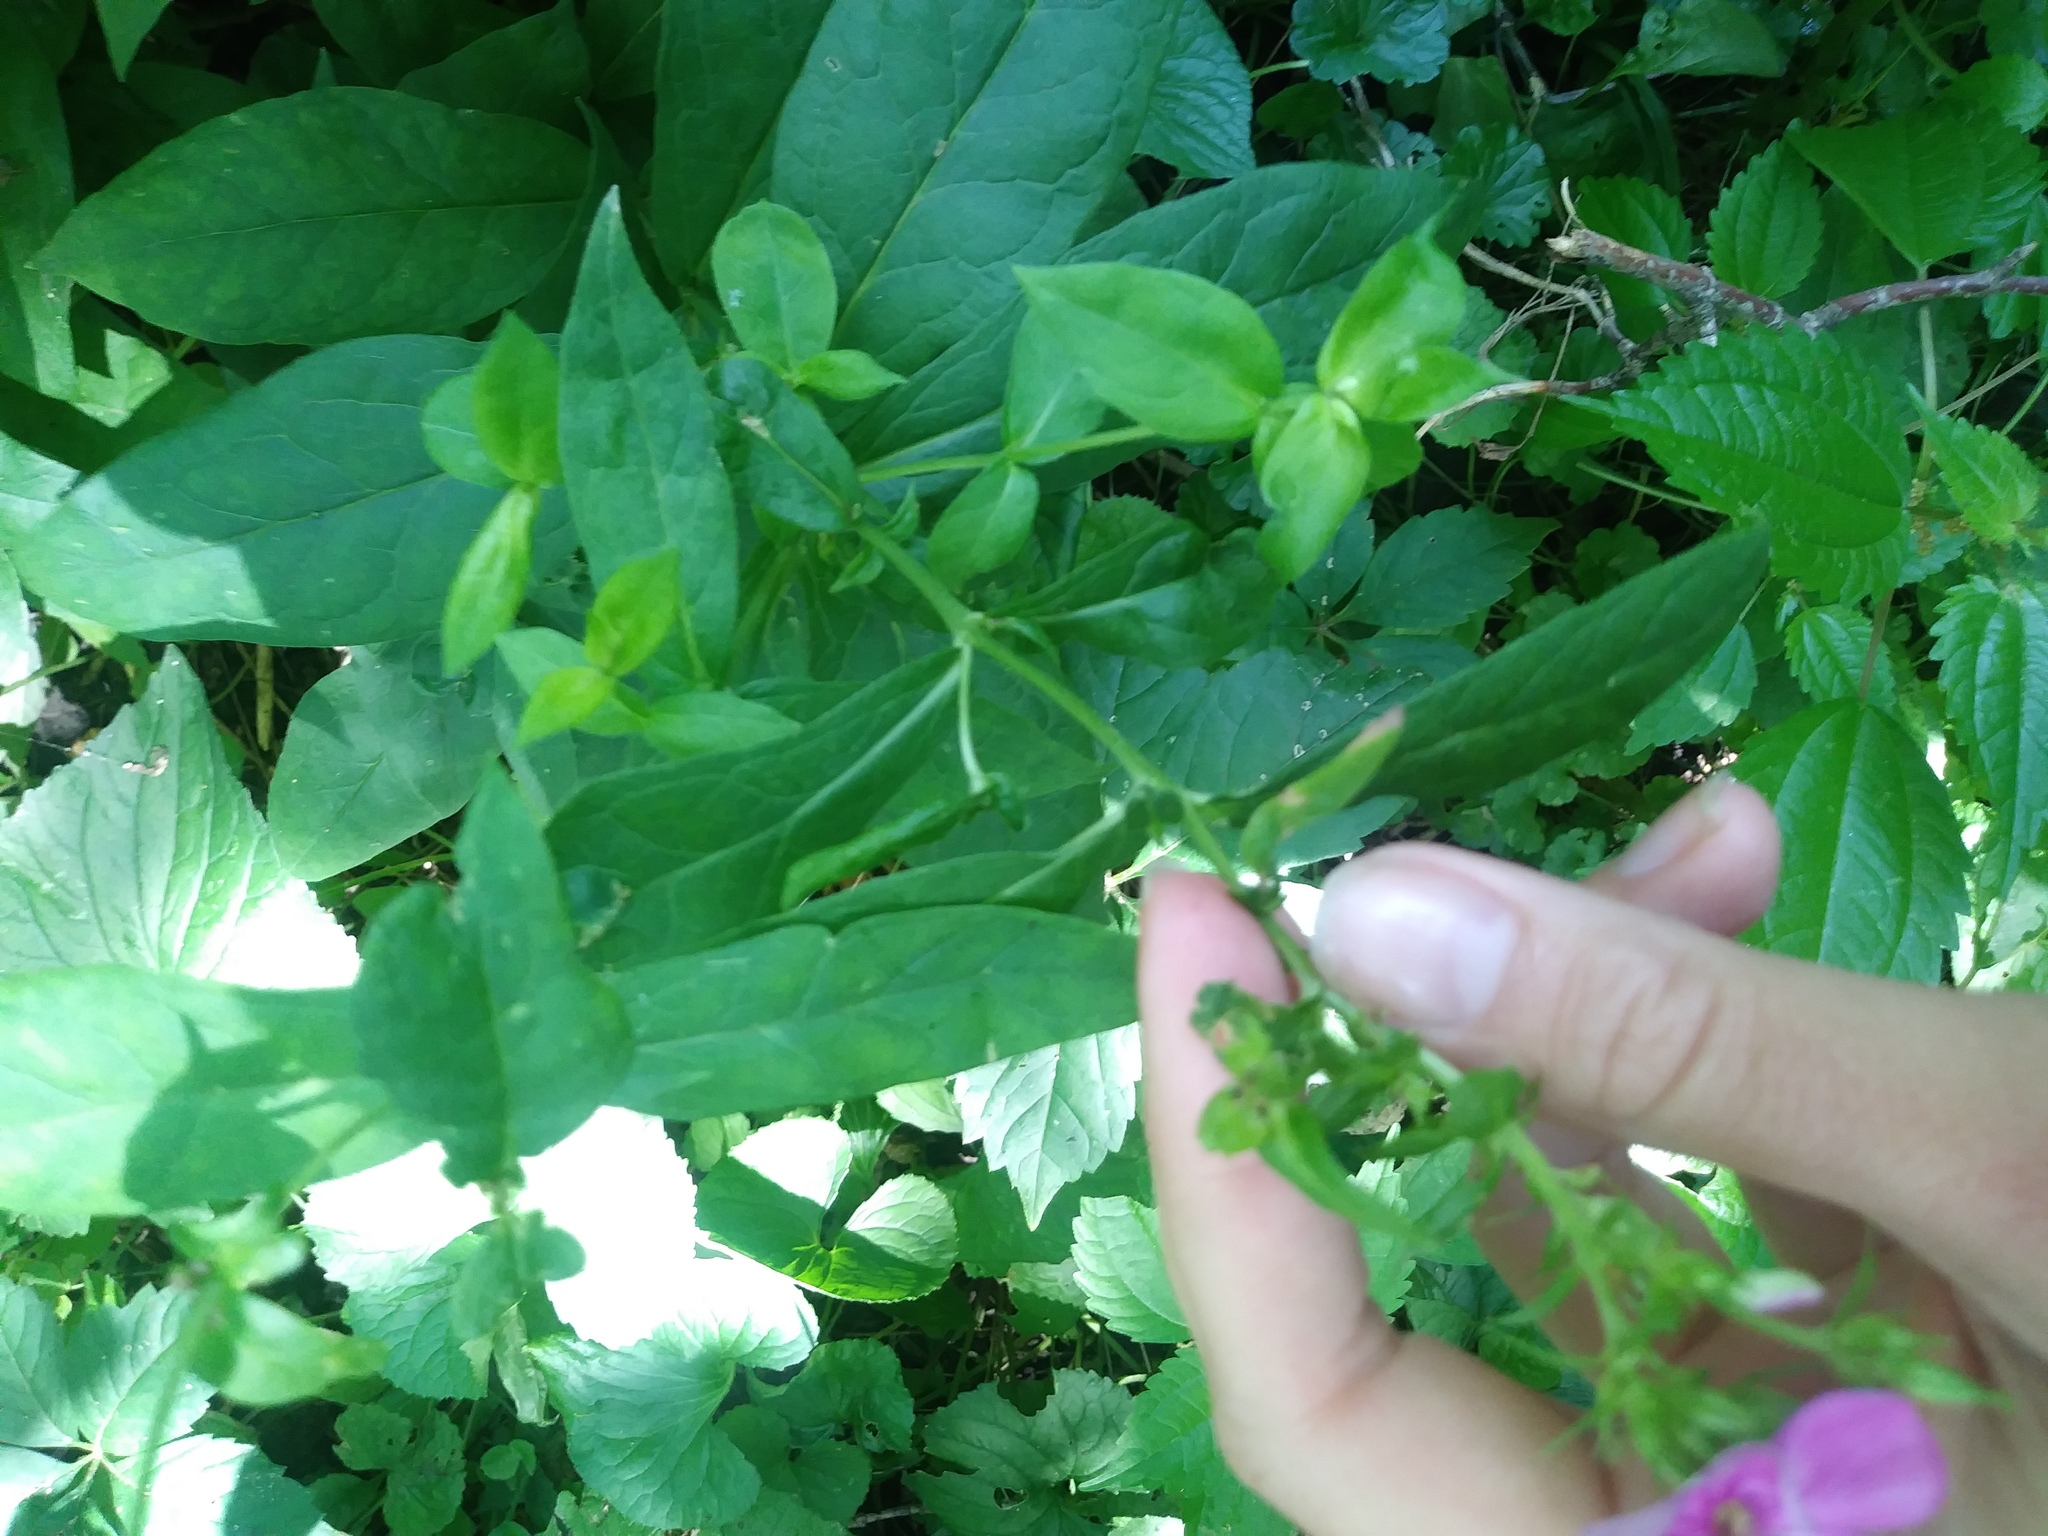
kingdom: Plantae
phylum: Tracheophyta
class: Magnoliopsida
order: Ericales
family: Polemoniaceae
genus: Phlox
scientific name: Phlox paniculata
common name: Fall phlox
